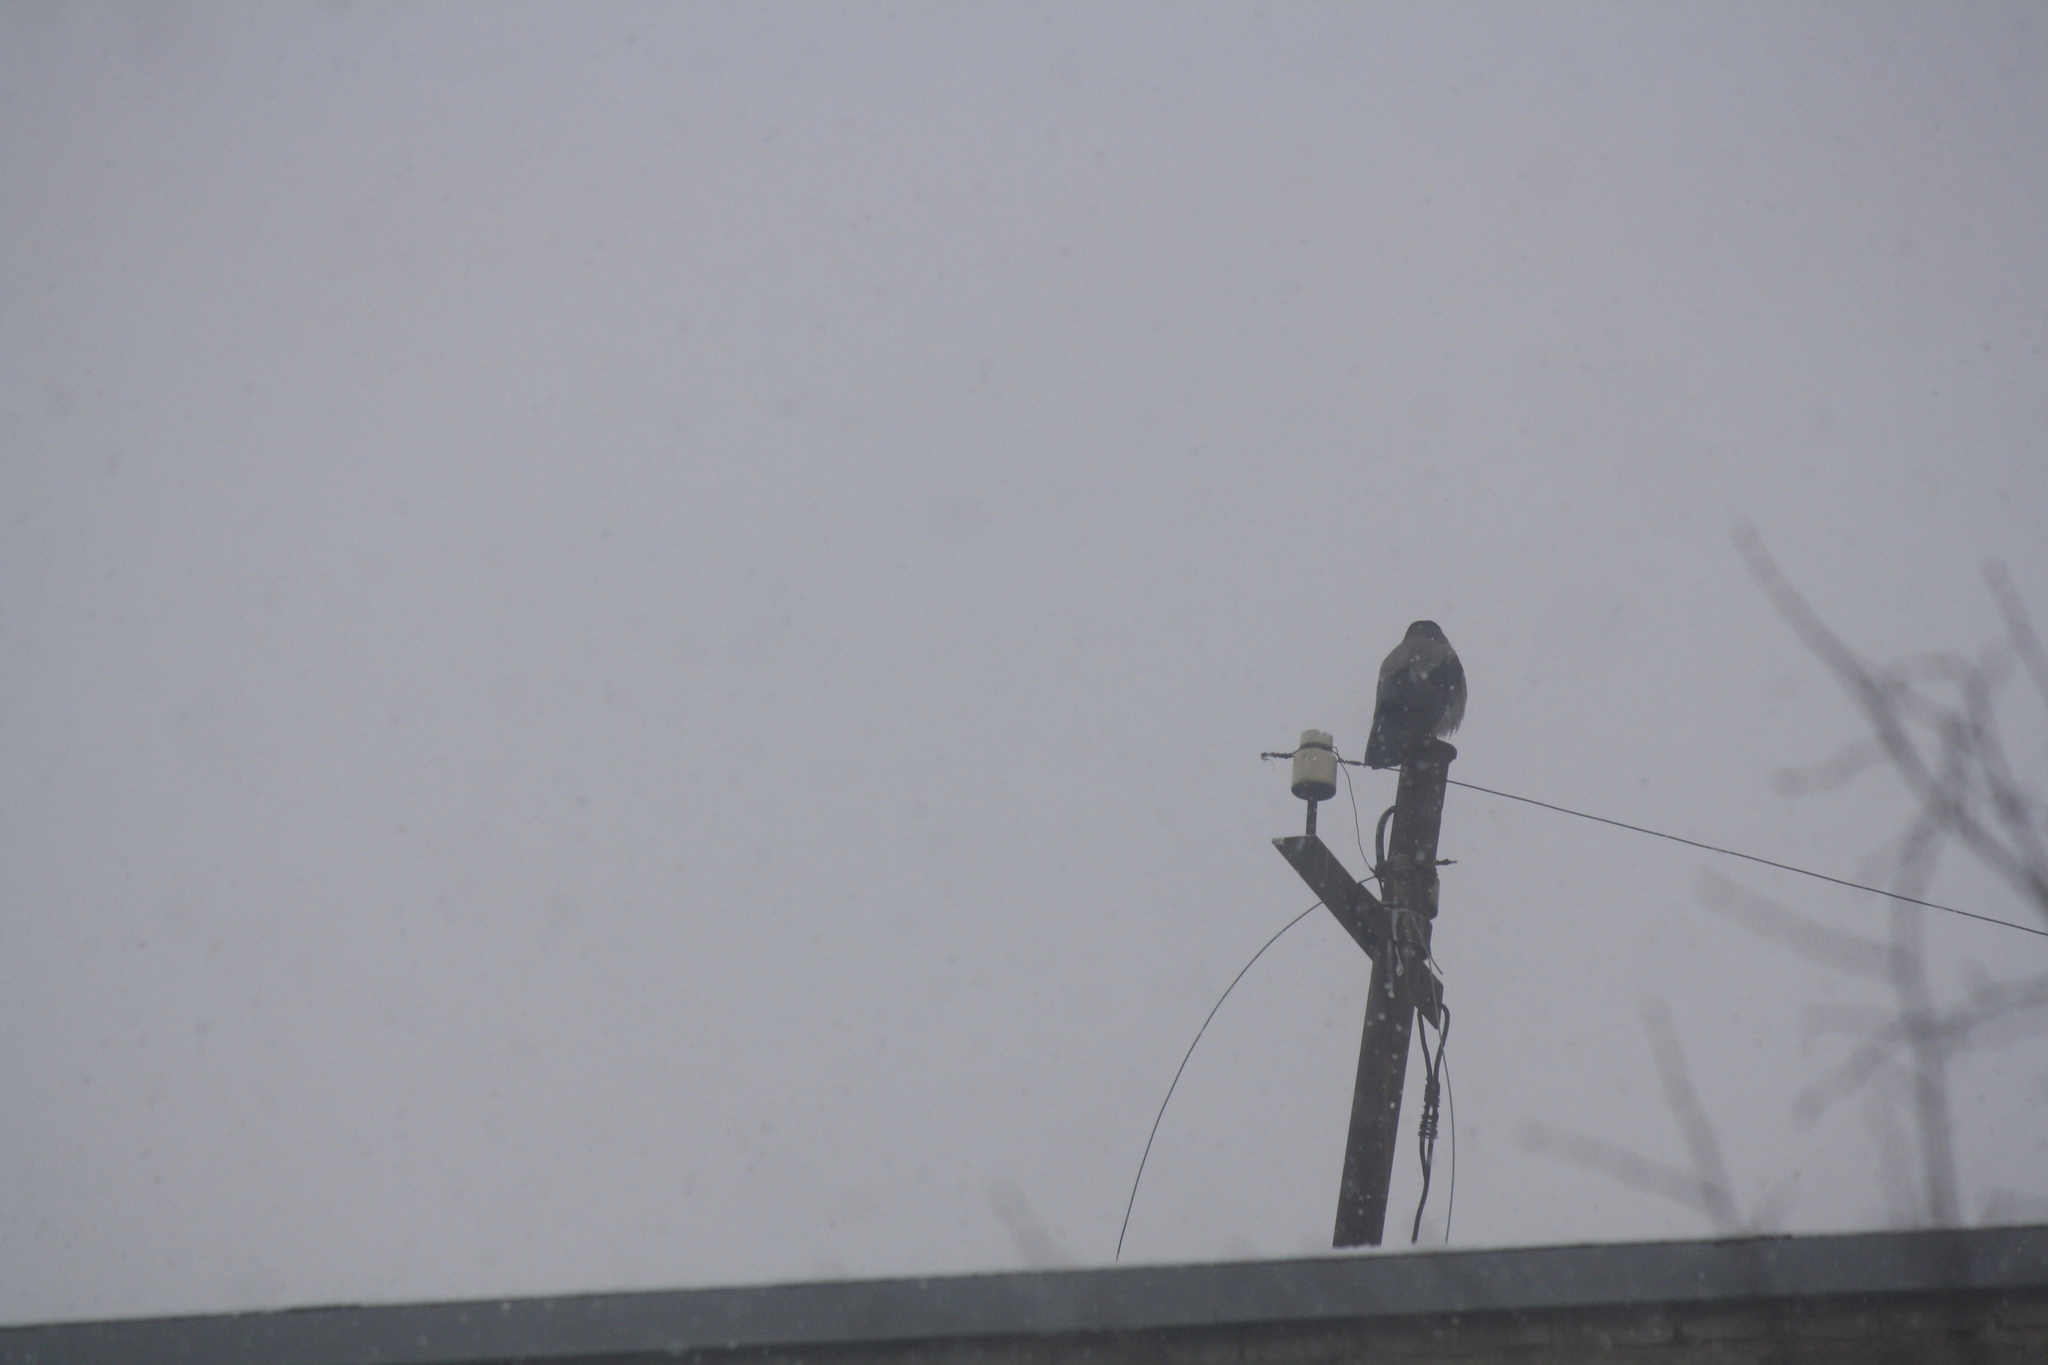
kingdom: Animalia
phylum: Chordata
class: Aves
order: Passeriformes
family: Corvidae
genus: Corvus
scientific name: Corvus cornix
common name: Hooded crow
